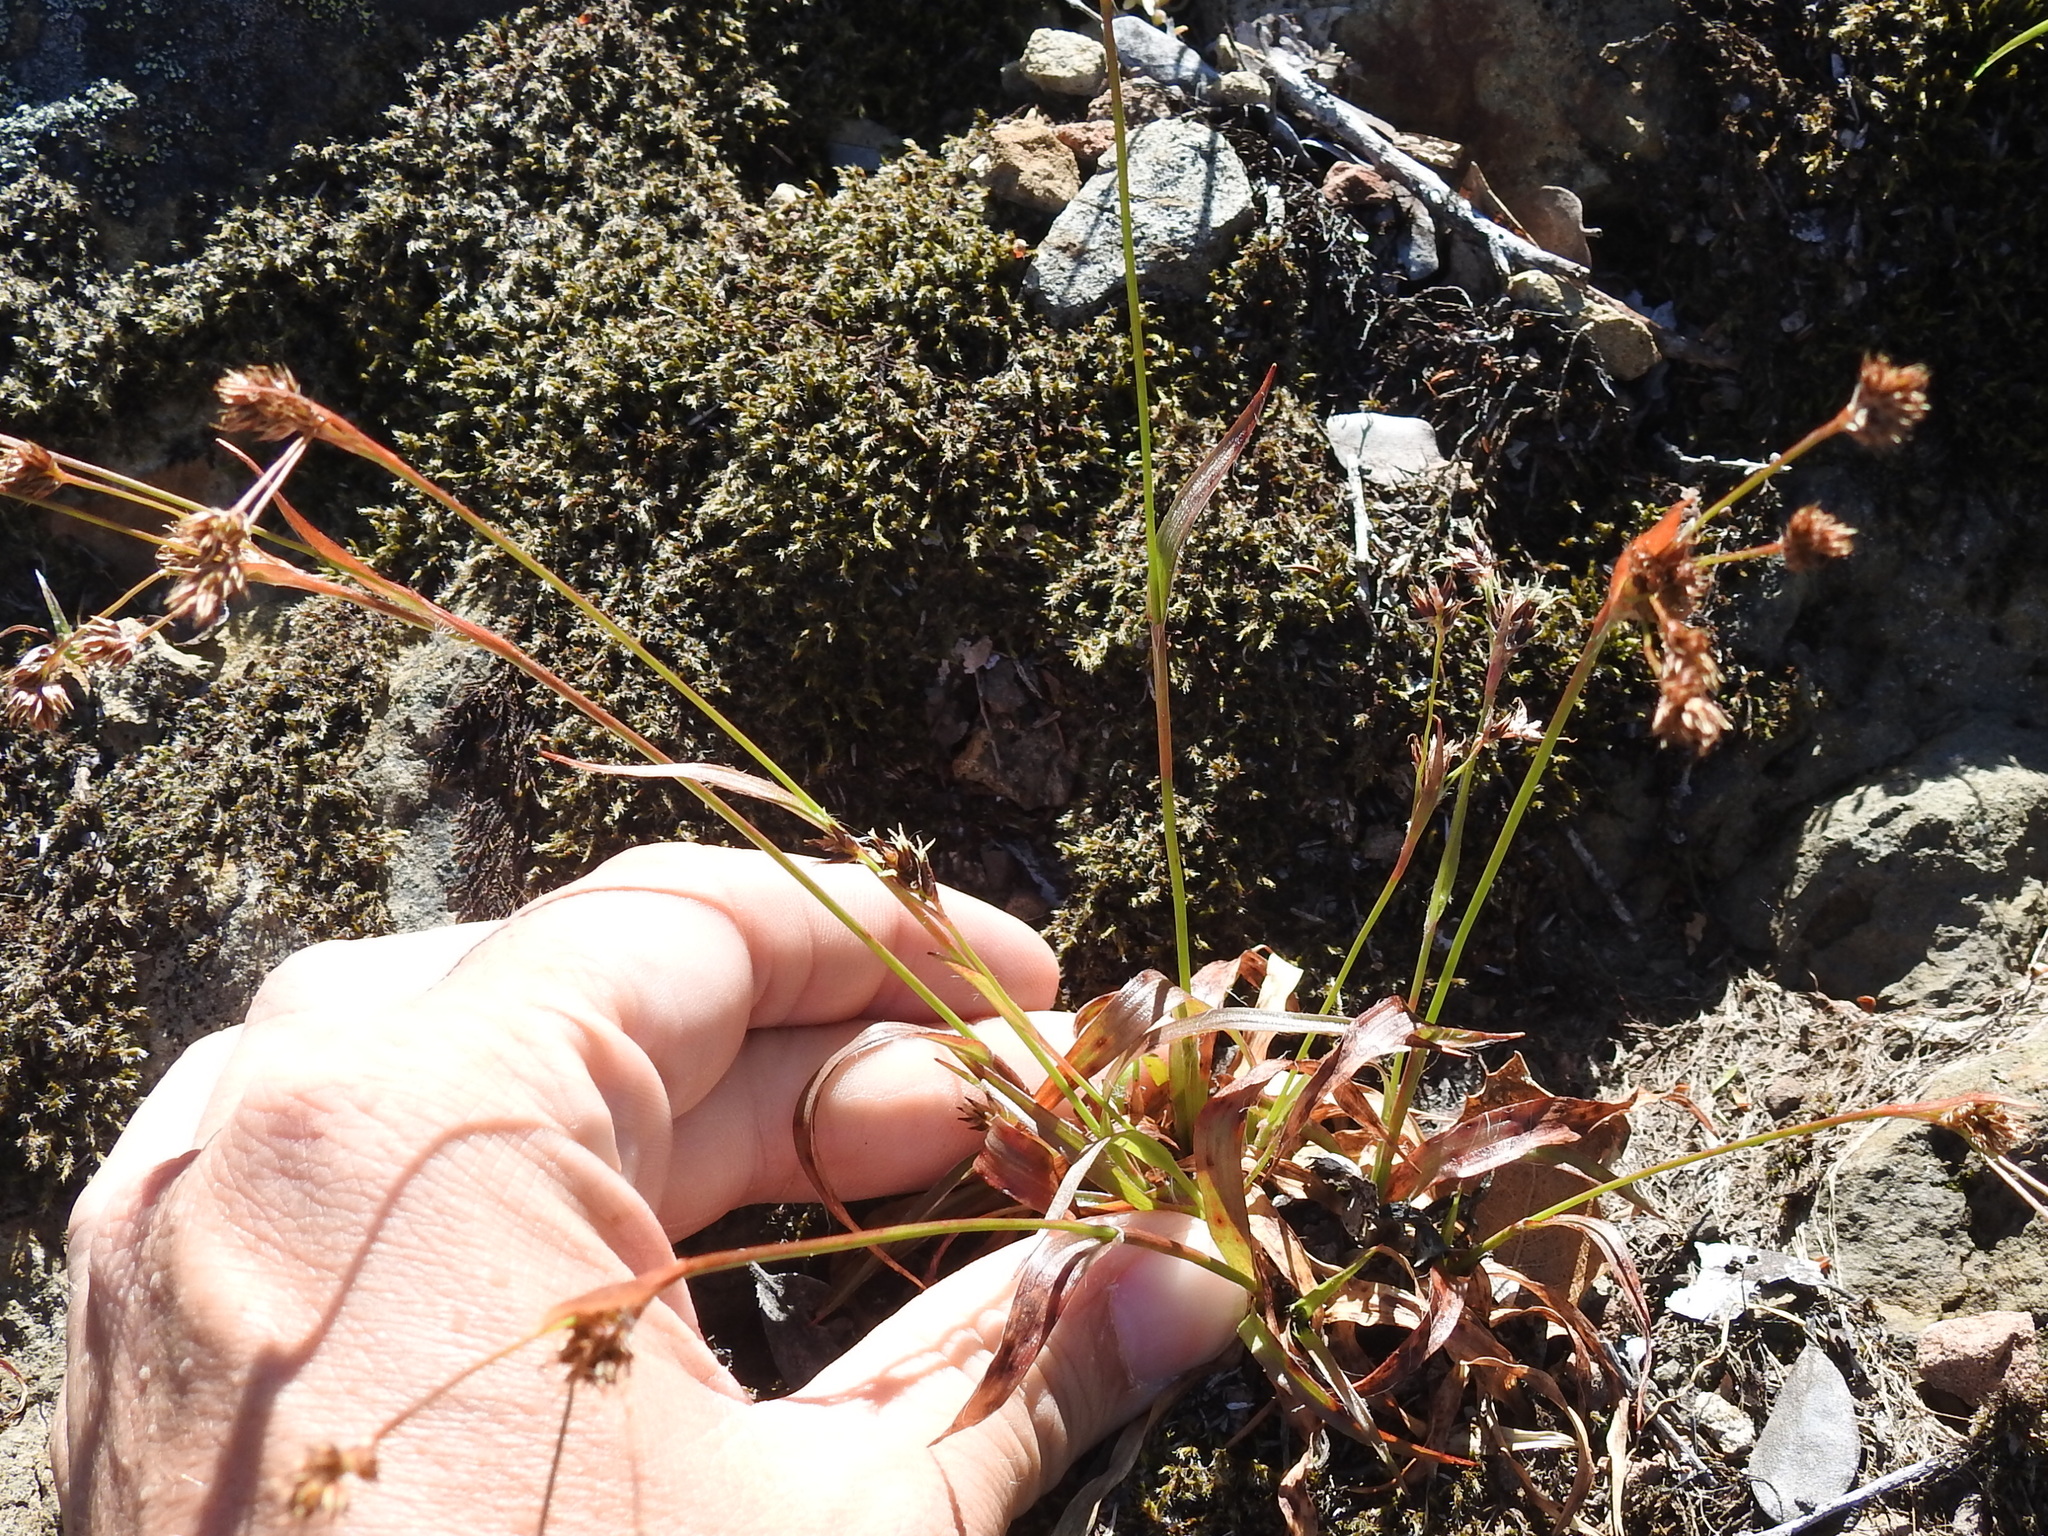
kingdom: Plantae
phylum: Tracheophyta
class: Liliopsida
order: Poales
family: Juncaceae
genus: Luzula
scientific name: Luzula comosa
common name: Pacific woodrush
